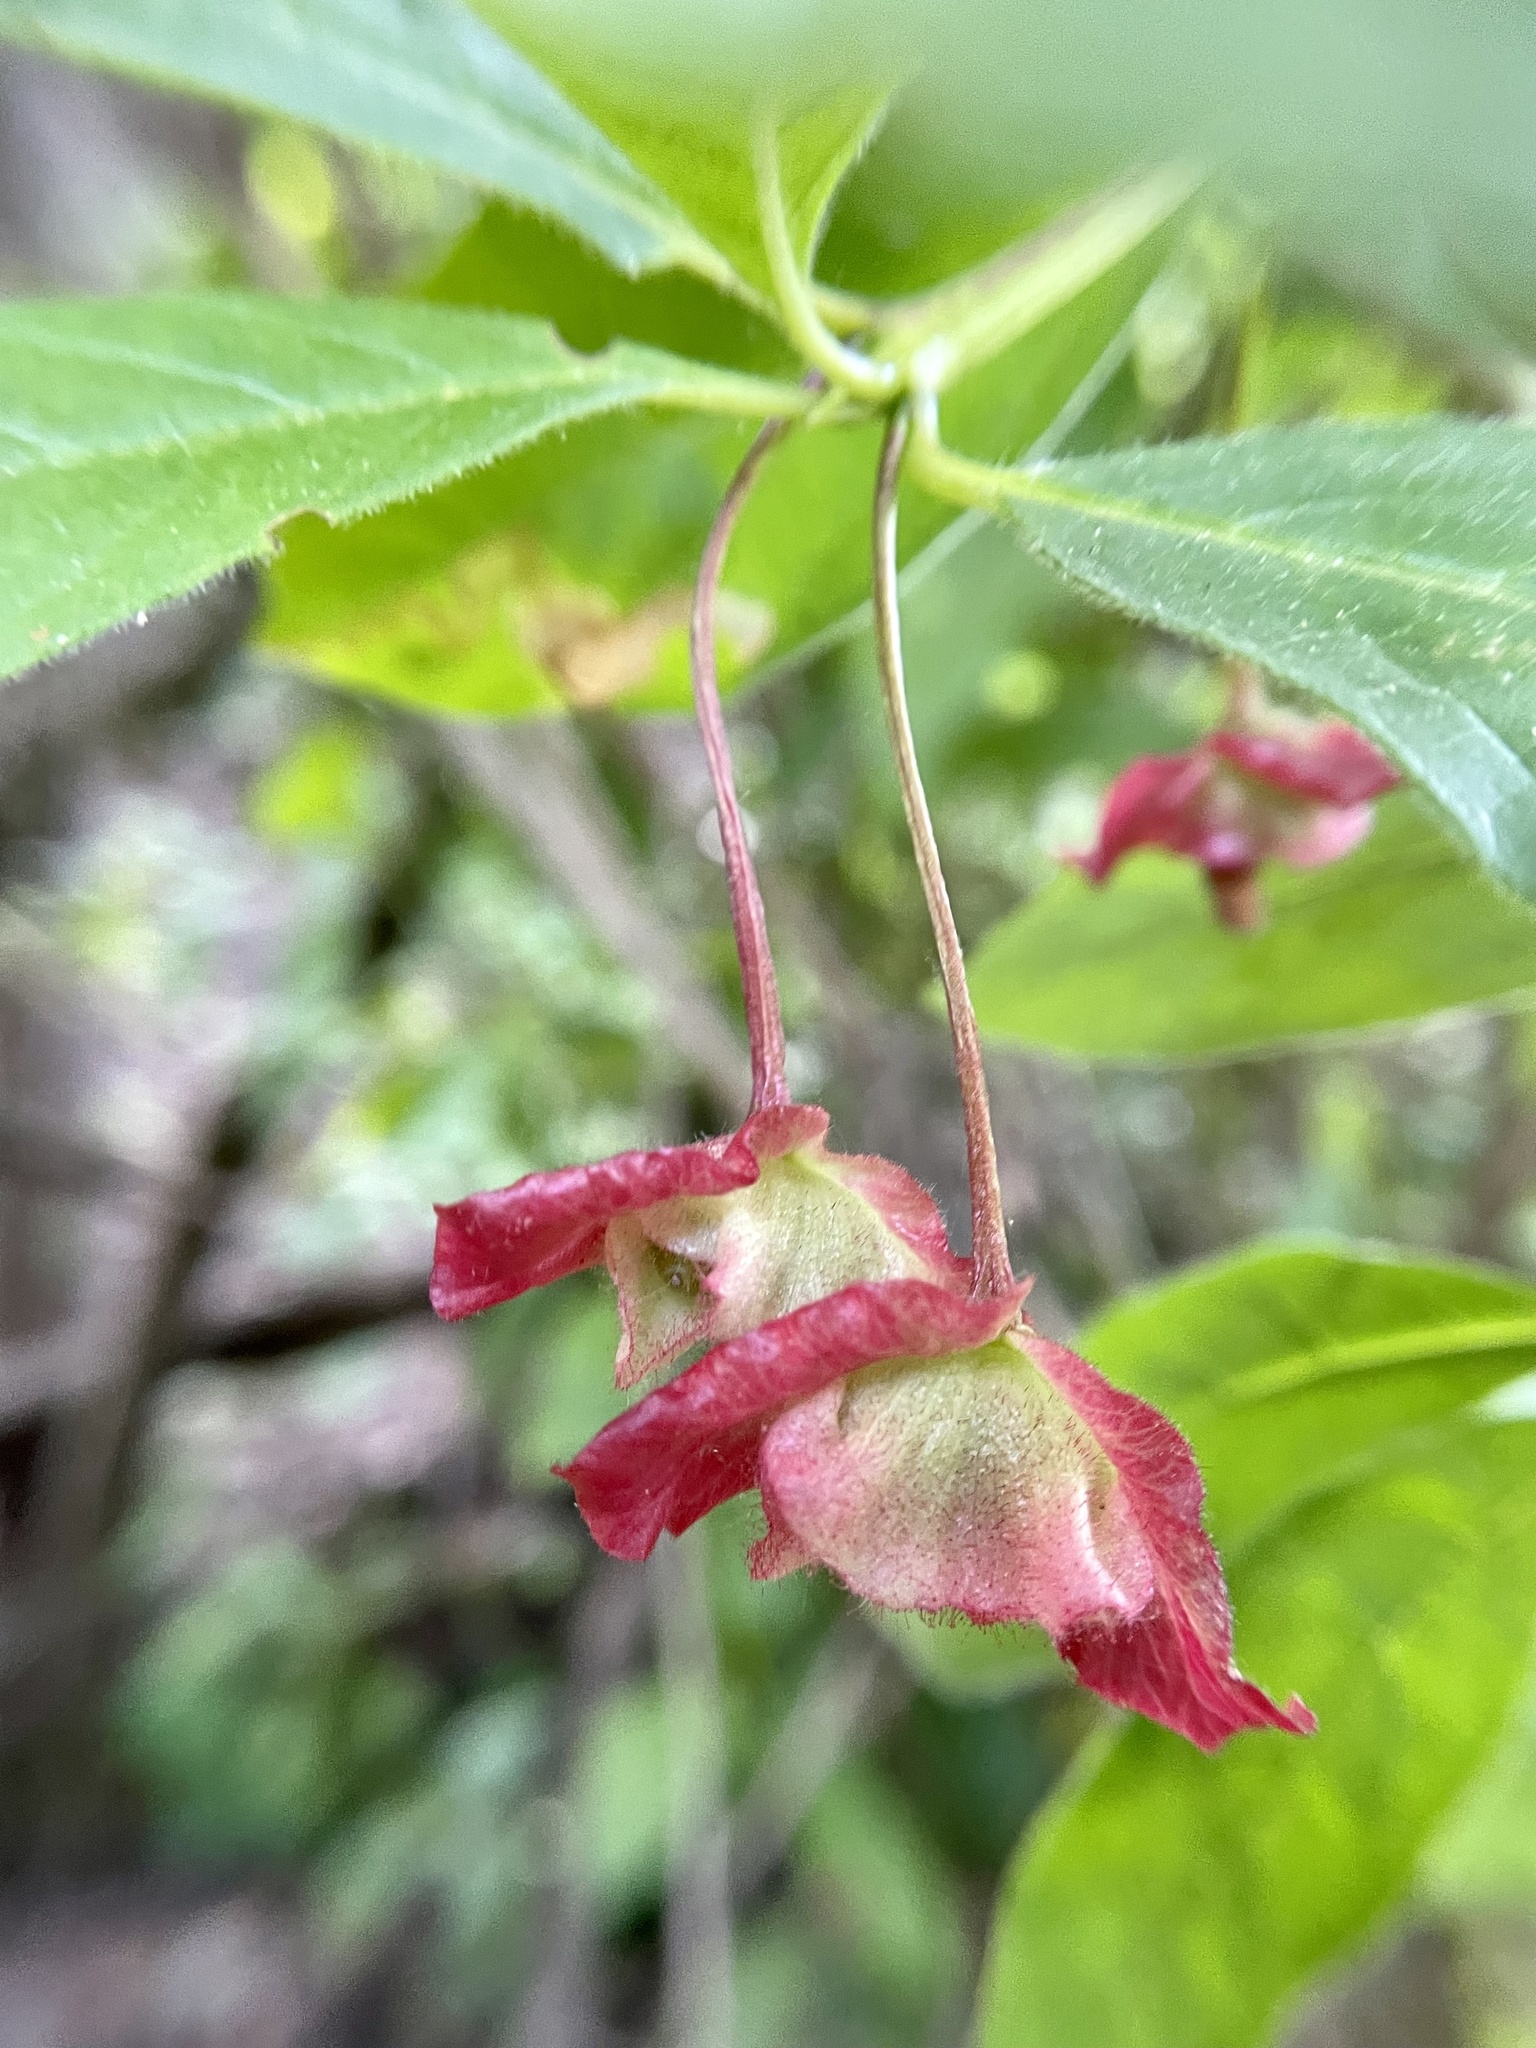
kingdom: Plantae
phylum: Tracheophyta
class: Magnoliopsida
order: Dipsacales
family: Caprifoliaceae
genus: Lonicera
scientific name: Lonicera involucrata
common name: Californian honeysuckle
